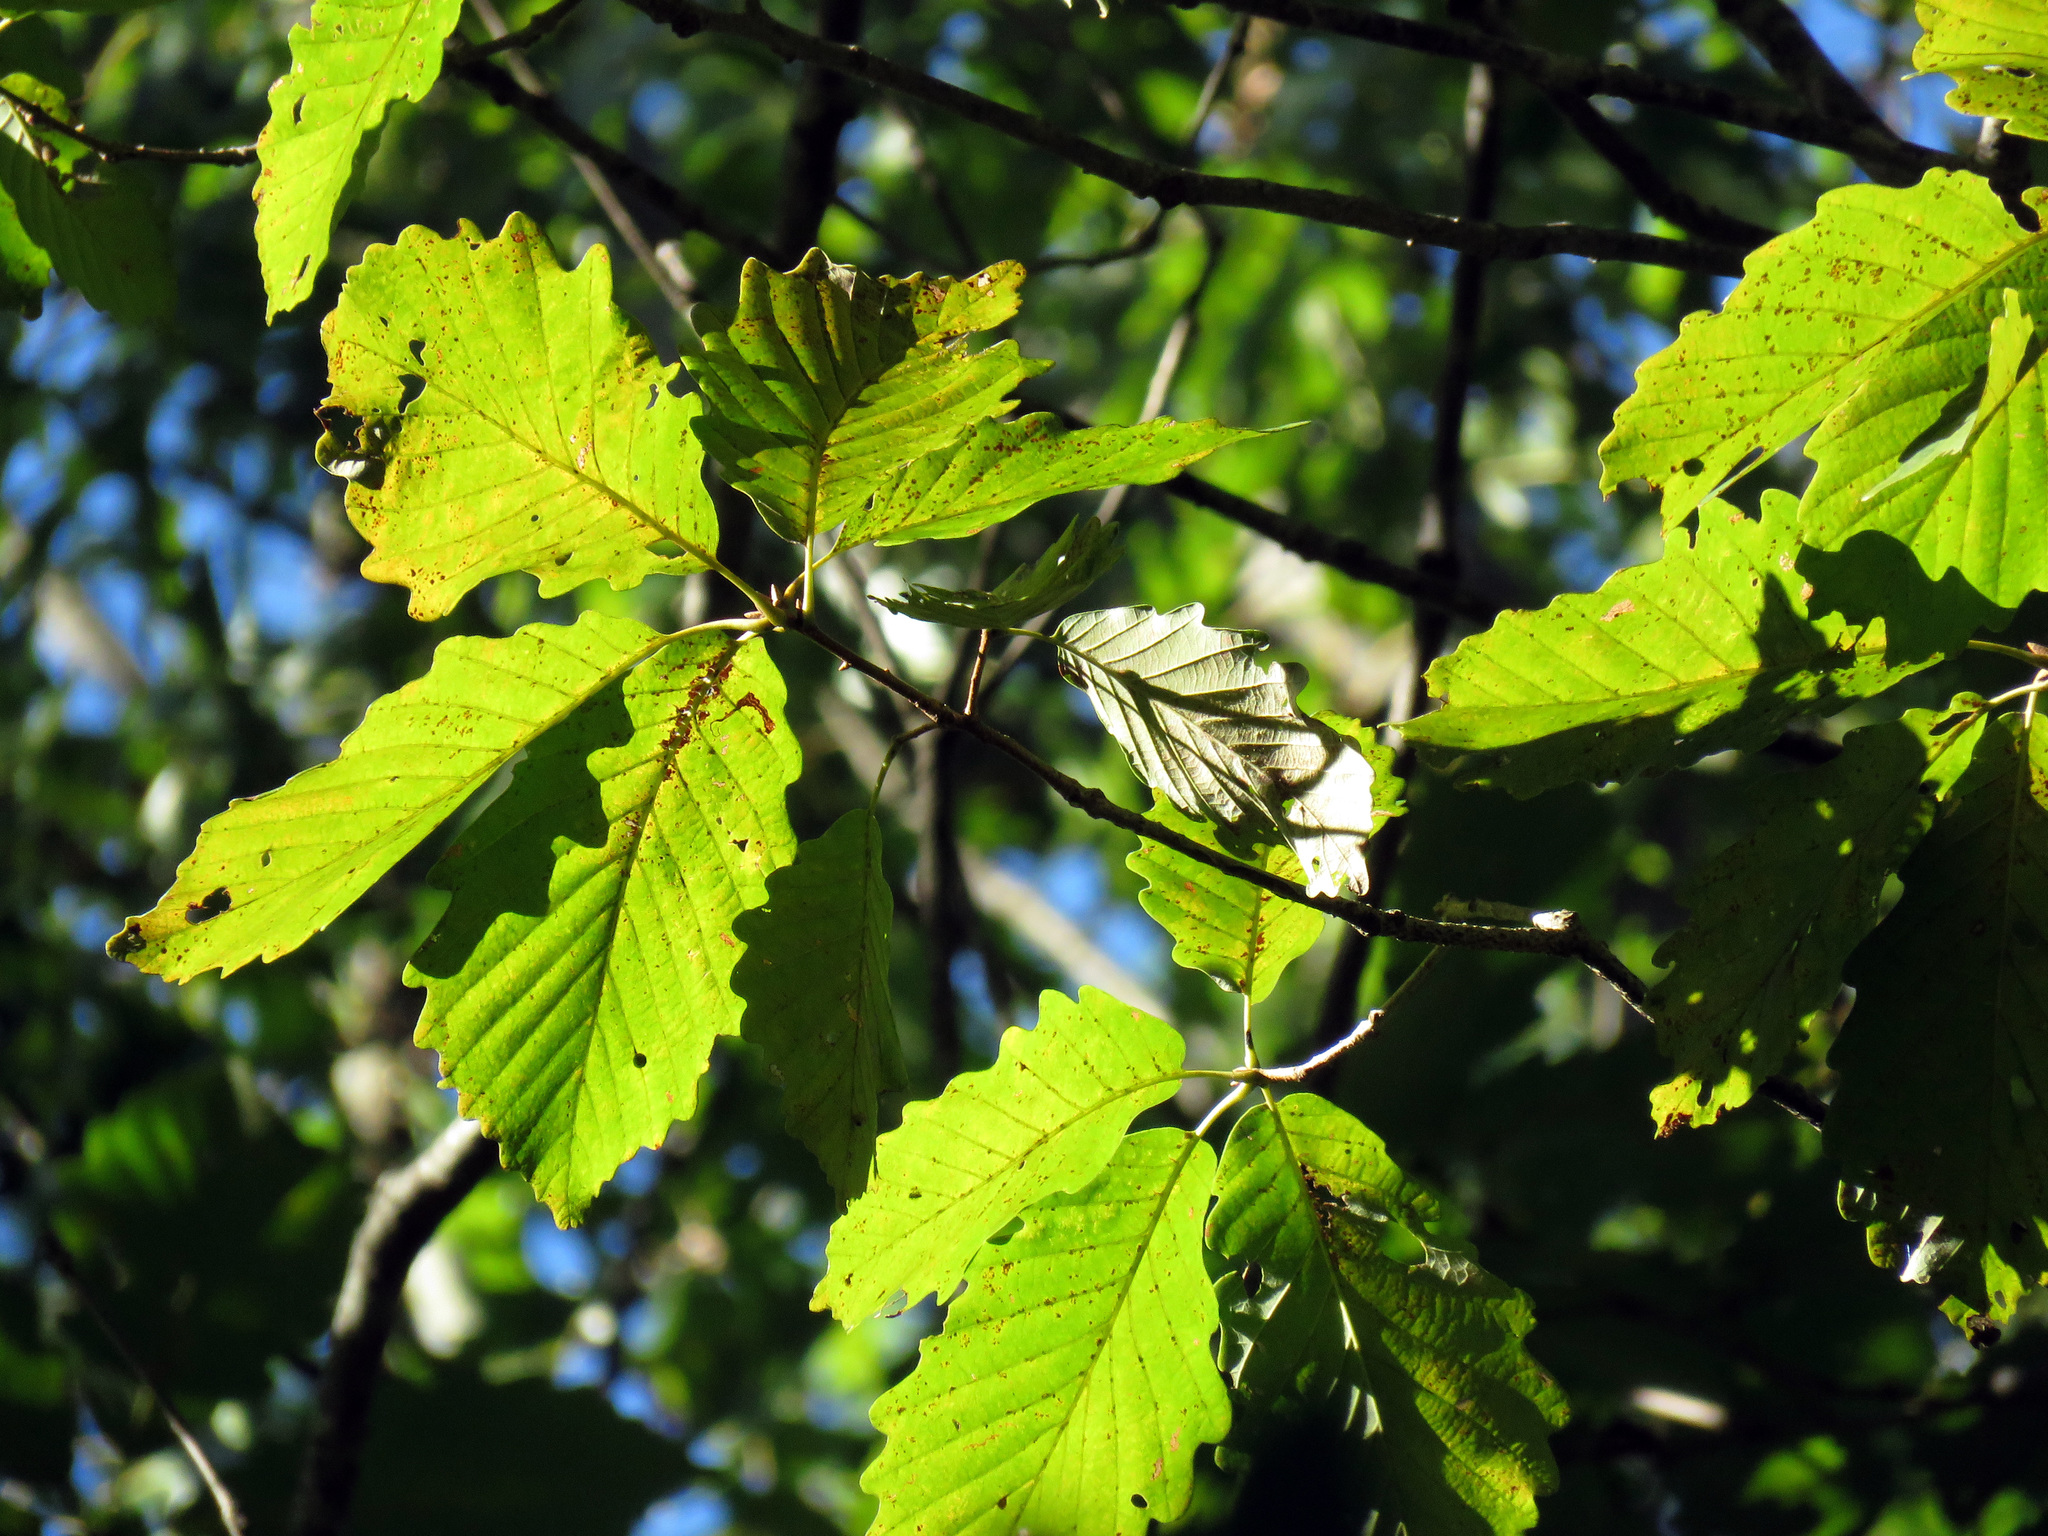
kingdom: Plantae
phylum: Tracheophyta
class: Magnoliopsida
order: Fagales
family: Fagaceae
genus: Quercus
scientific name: Quercus montana
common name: Chestnut oak
